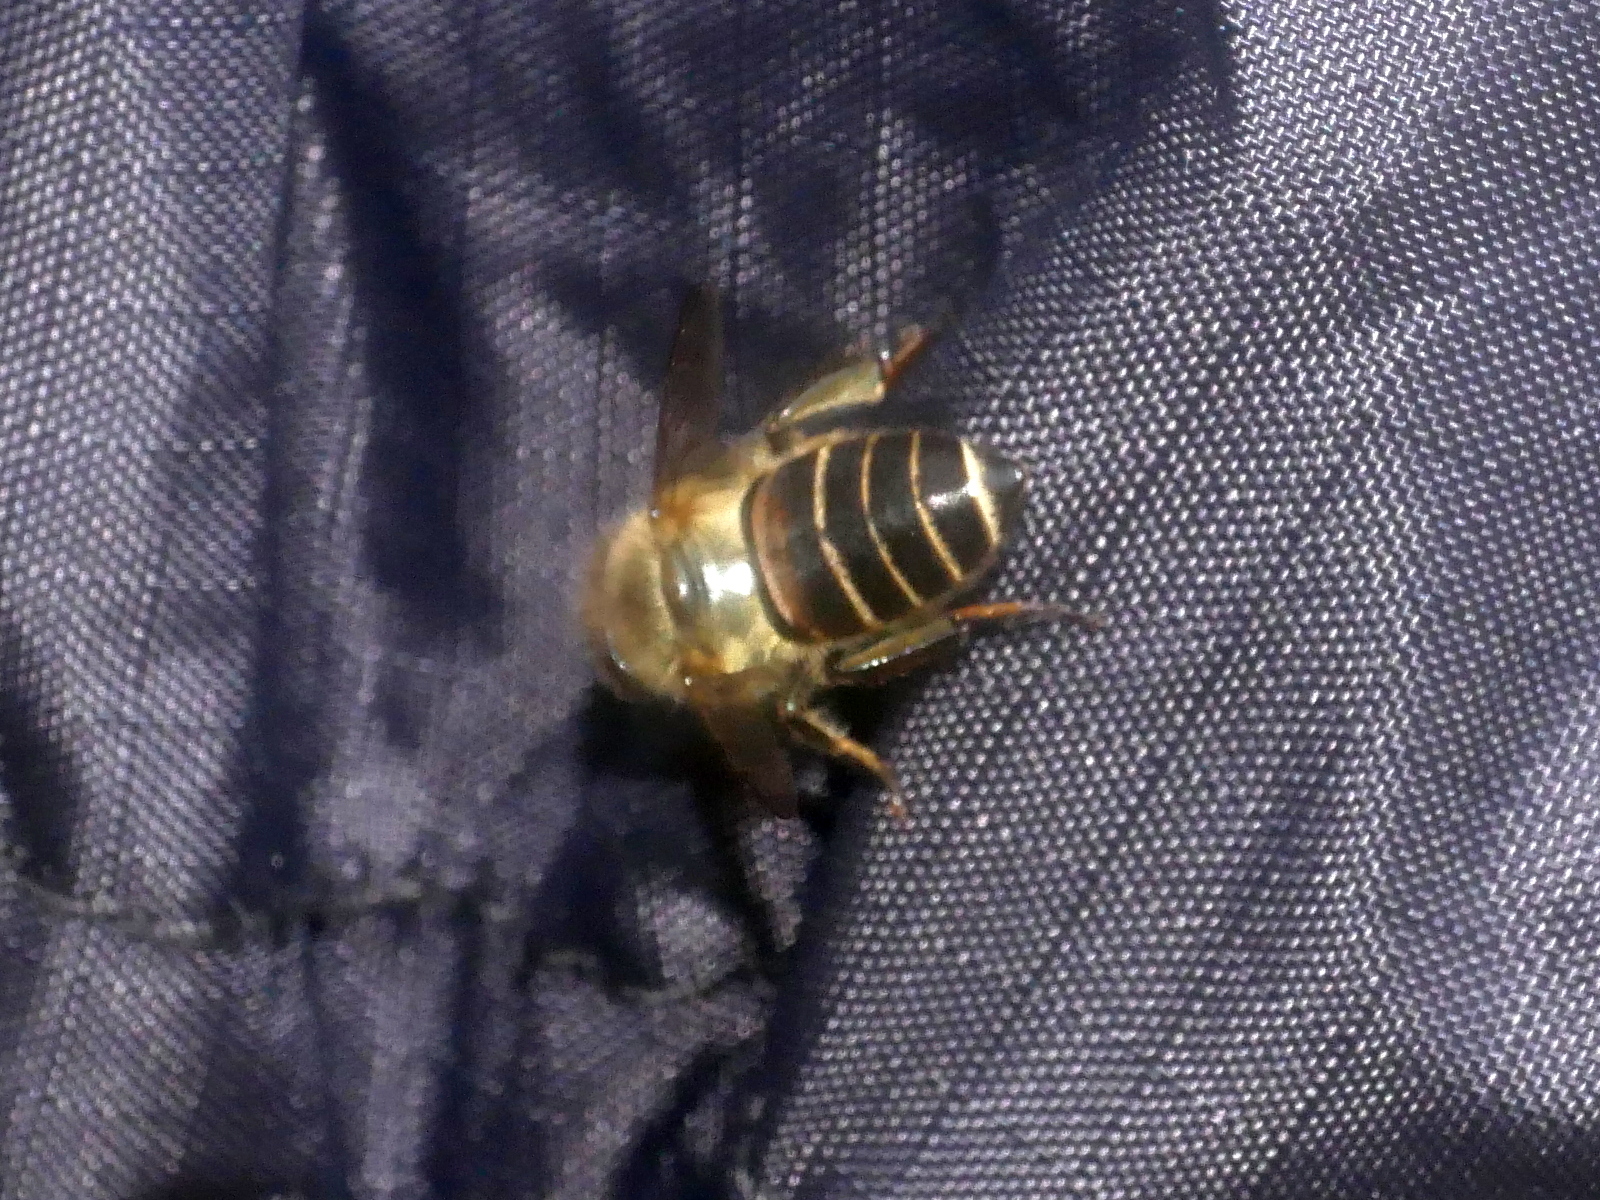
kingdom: Animalia
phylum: Arthropoda
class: Insecta
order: Hymenoptera
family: Apidae
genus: Apis
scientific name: Apis cerana
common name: Honey bee
